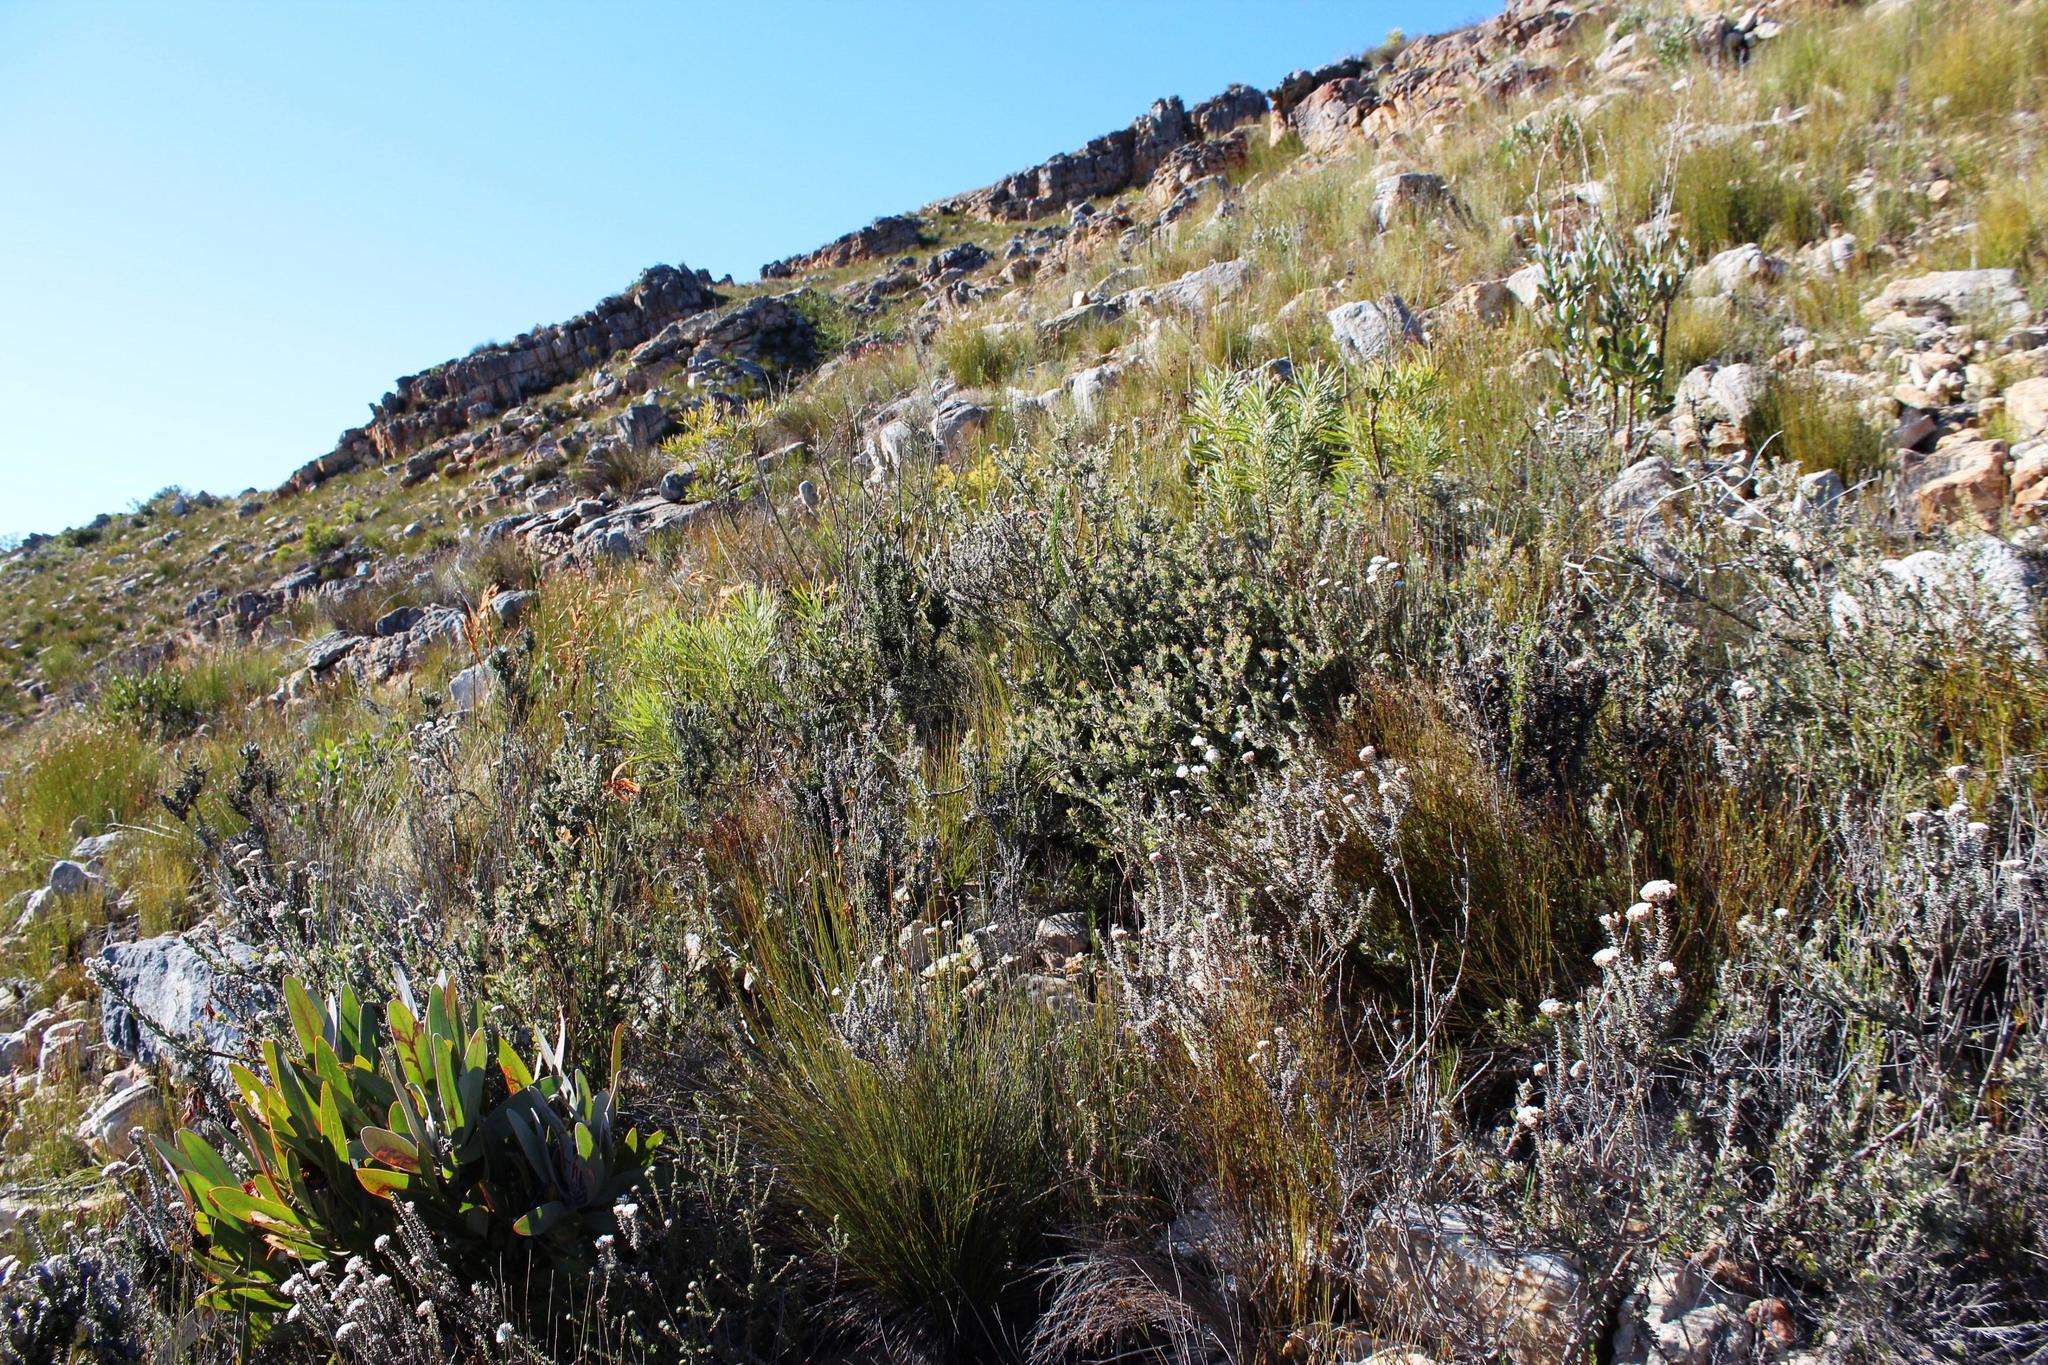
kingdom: Plantae
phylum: Tracheophyta
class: Magnoliopsida
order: Proteales
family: Proteaceae
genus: Leucospermum
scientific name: Leucospermum calligerum
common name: Arid pincushion
